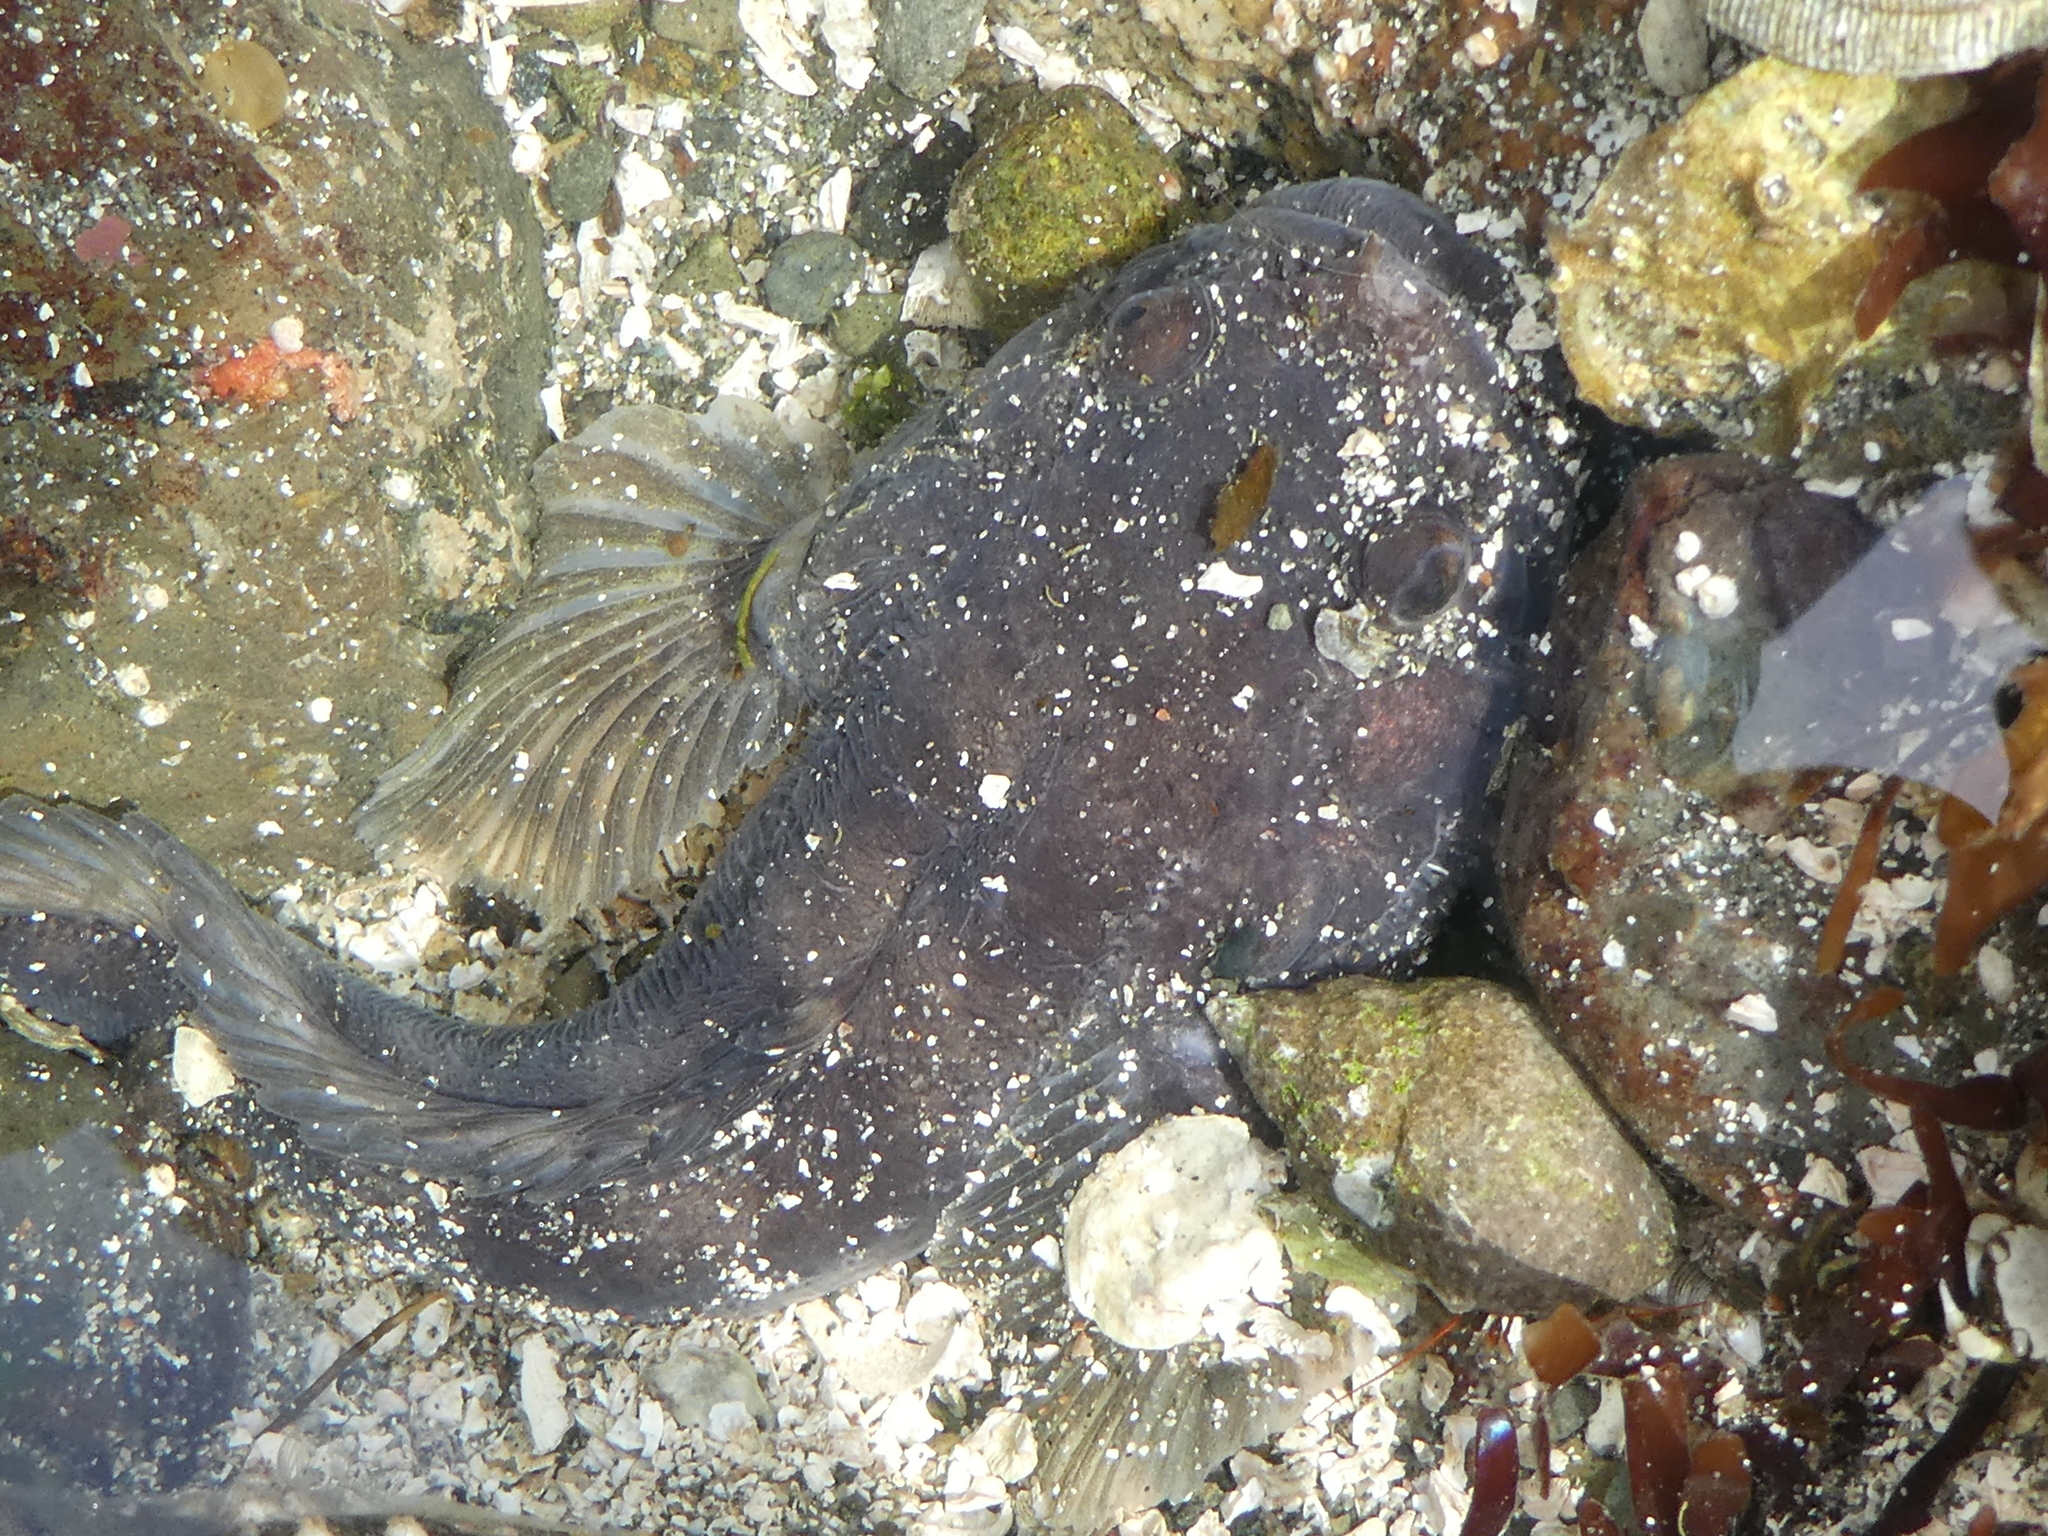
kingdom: Animalia
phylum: Chordata
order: Batrachoidiformes
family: Batrachoididae
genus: Porichthys
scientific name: Porichthys notatus
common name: Plainfin midshipman
